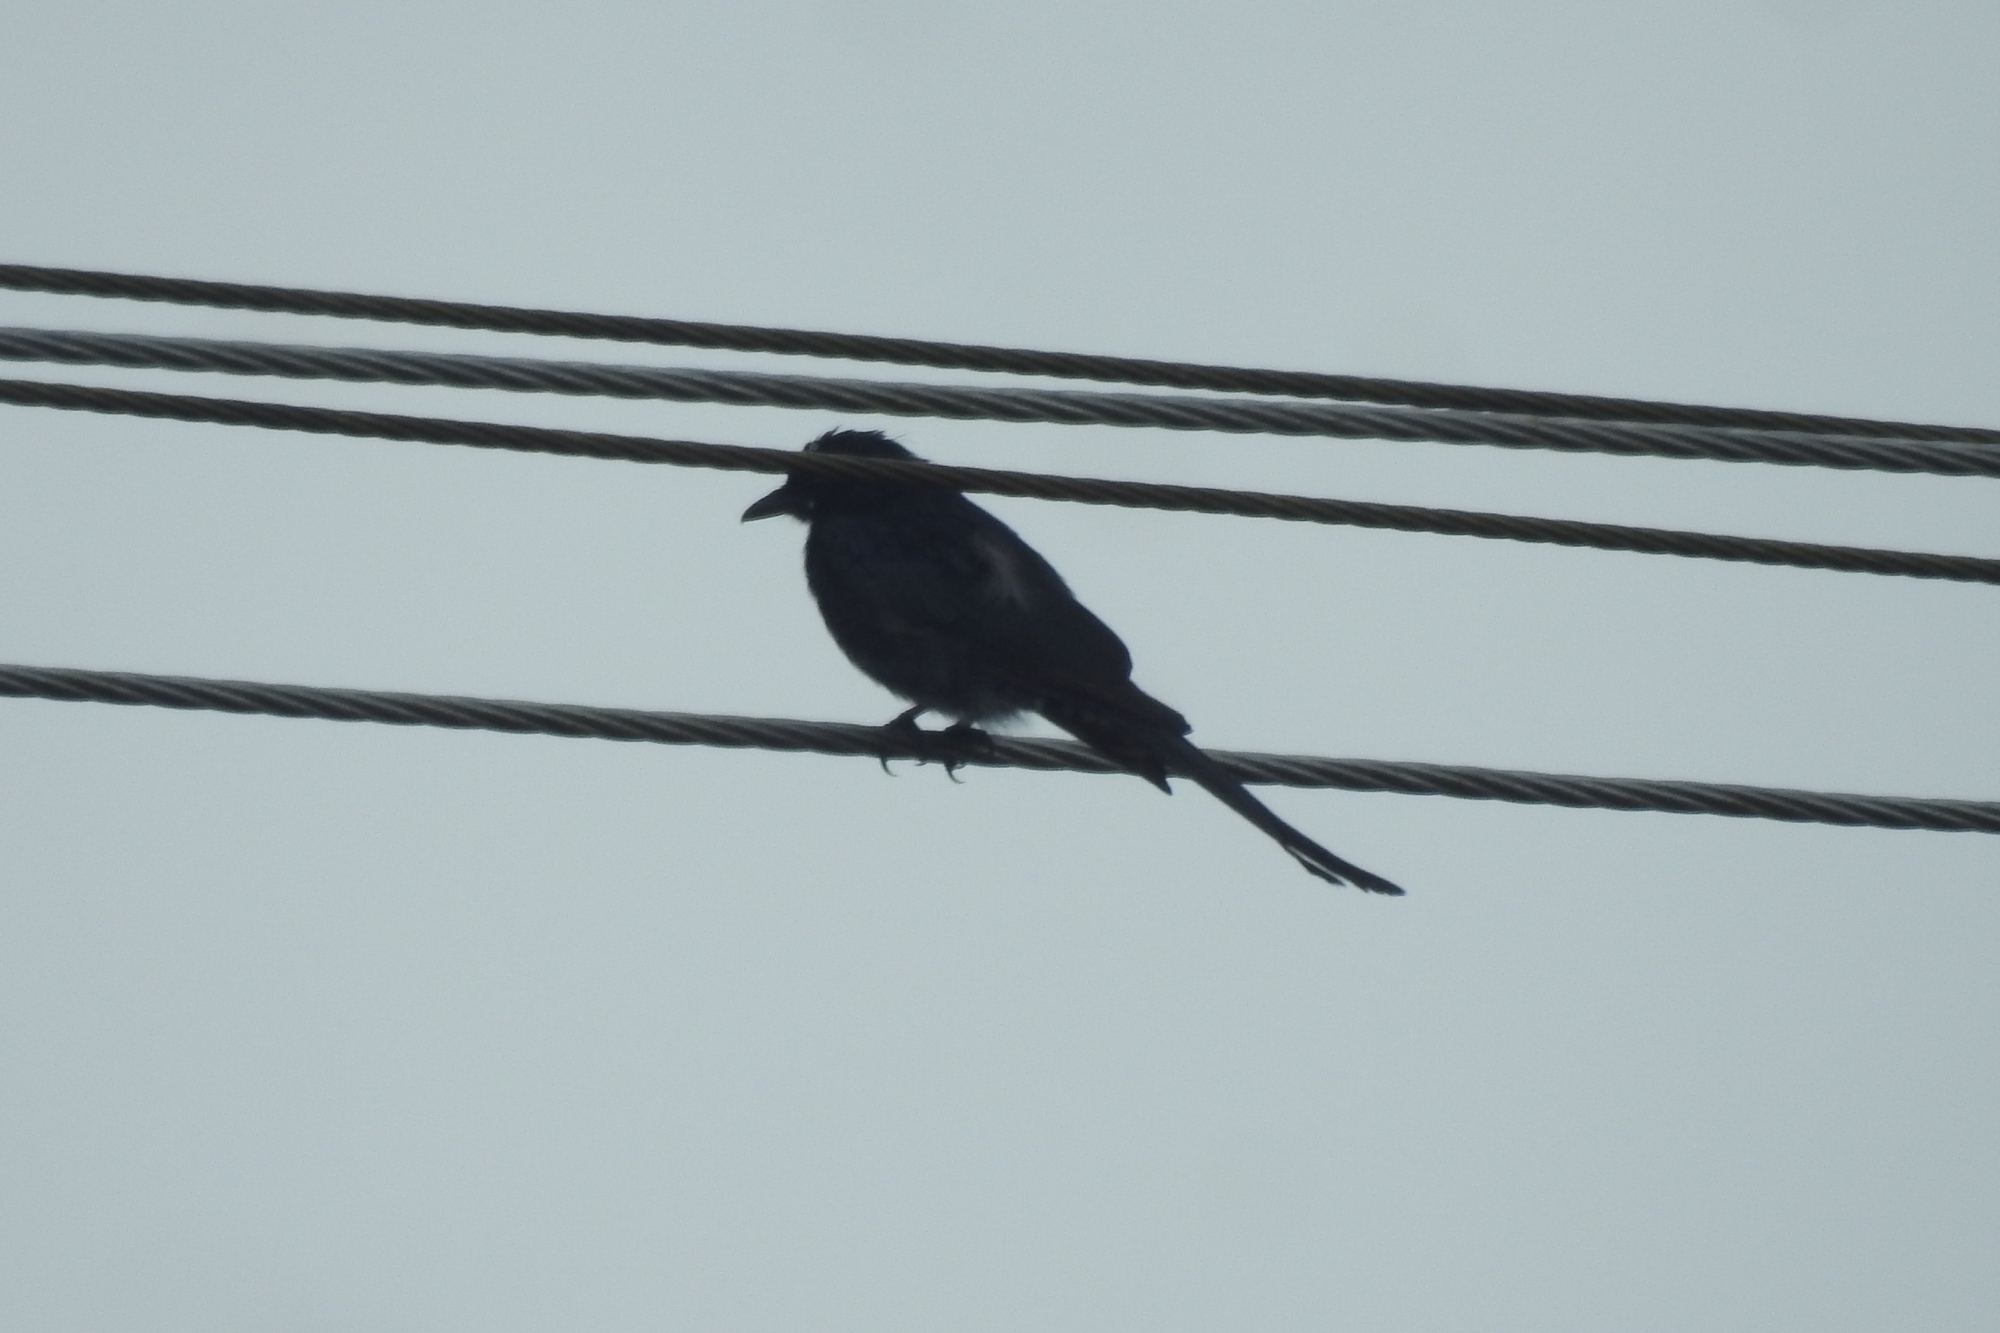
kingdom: Animalia
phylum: Chordata
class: Aves
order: Passeriformes
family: Dicruridae
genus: Dicrurus
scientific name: Dicrurus macrocercus
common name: Black drongo
